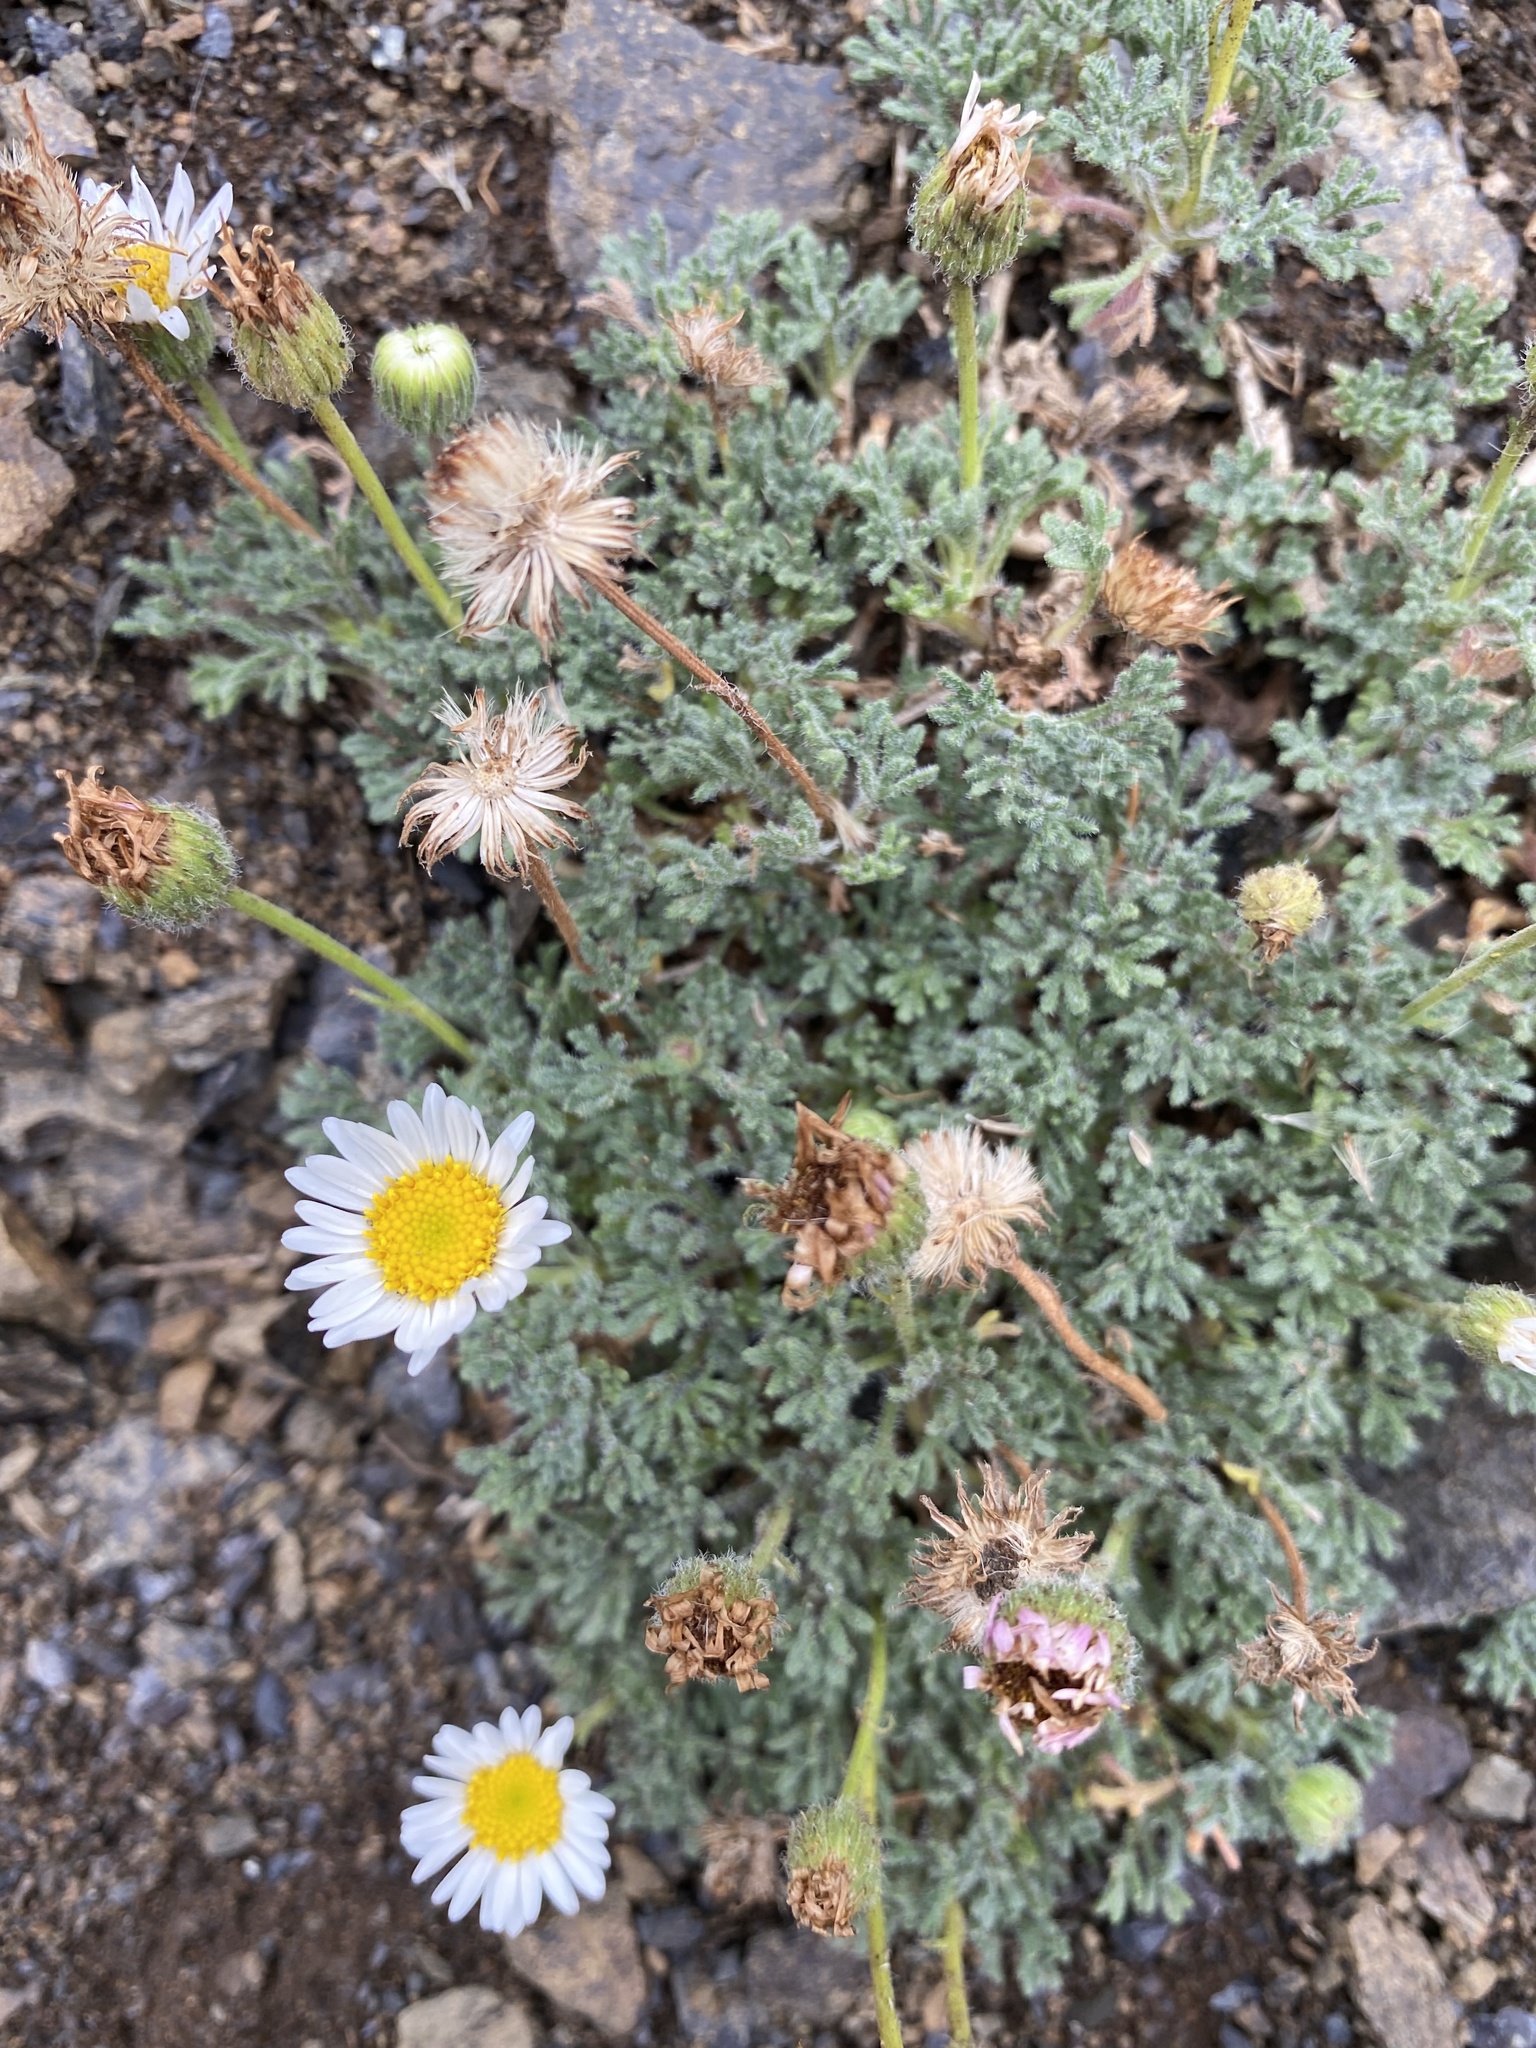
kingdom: Plantae
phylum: Tracheophyta
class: Magnoliopsida
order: Asterales
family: Asteraceae
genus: Erigeron
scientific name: Erigeron compositus
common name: Dwarf mountain fleabane
